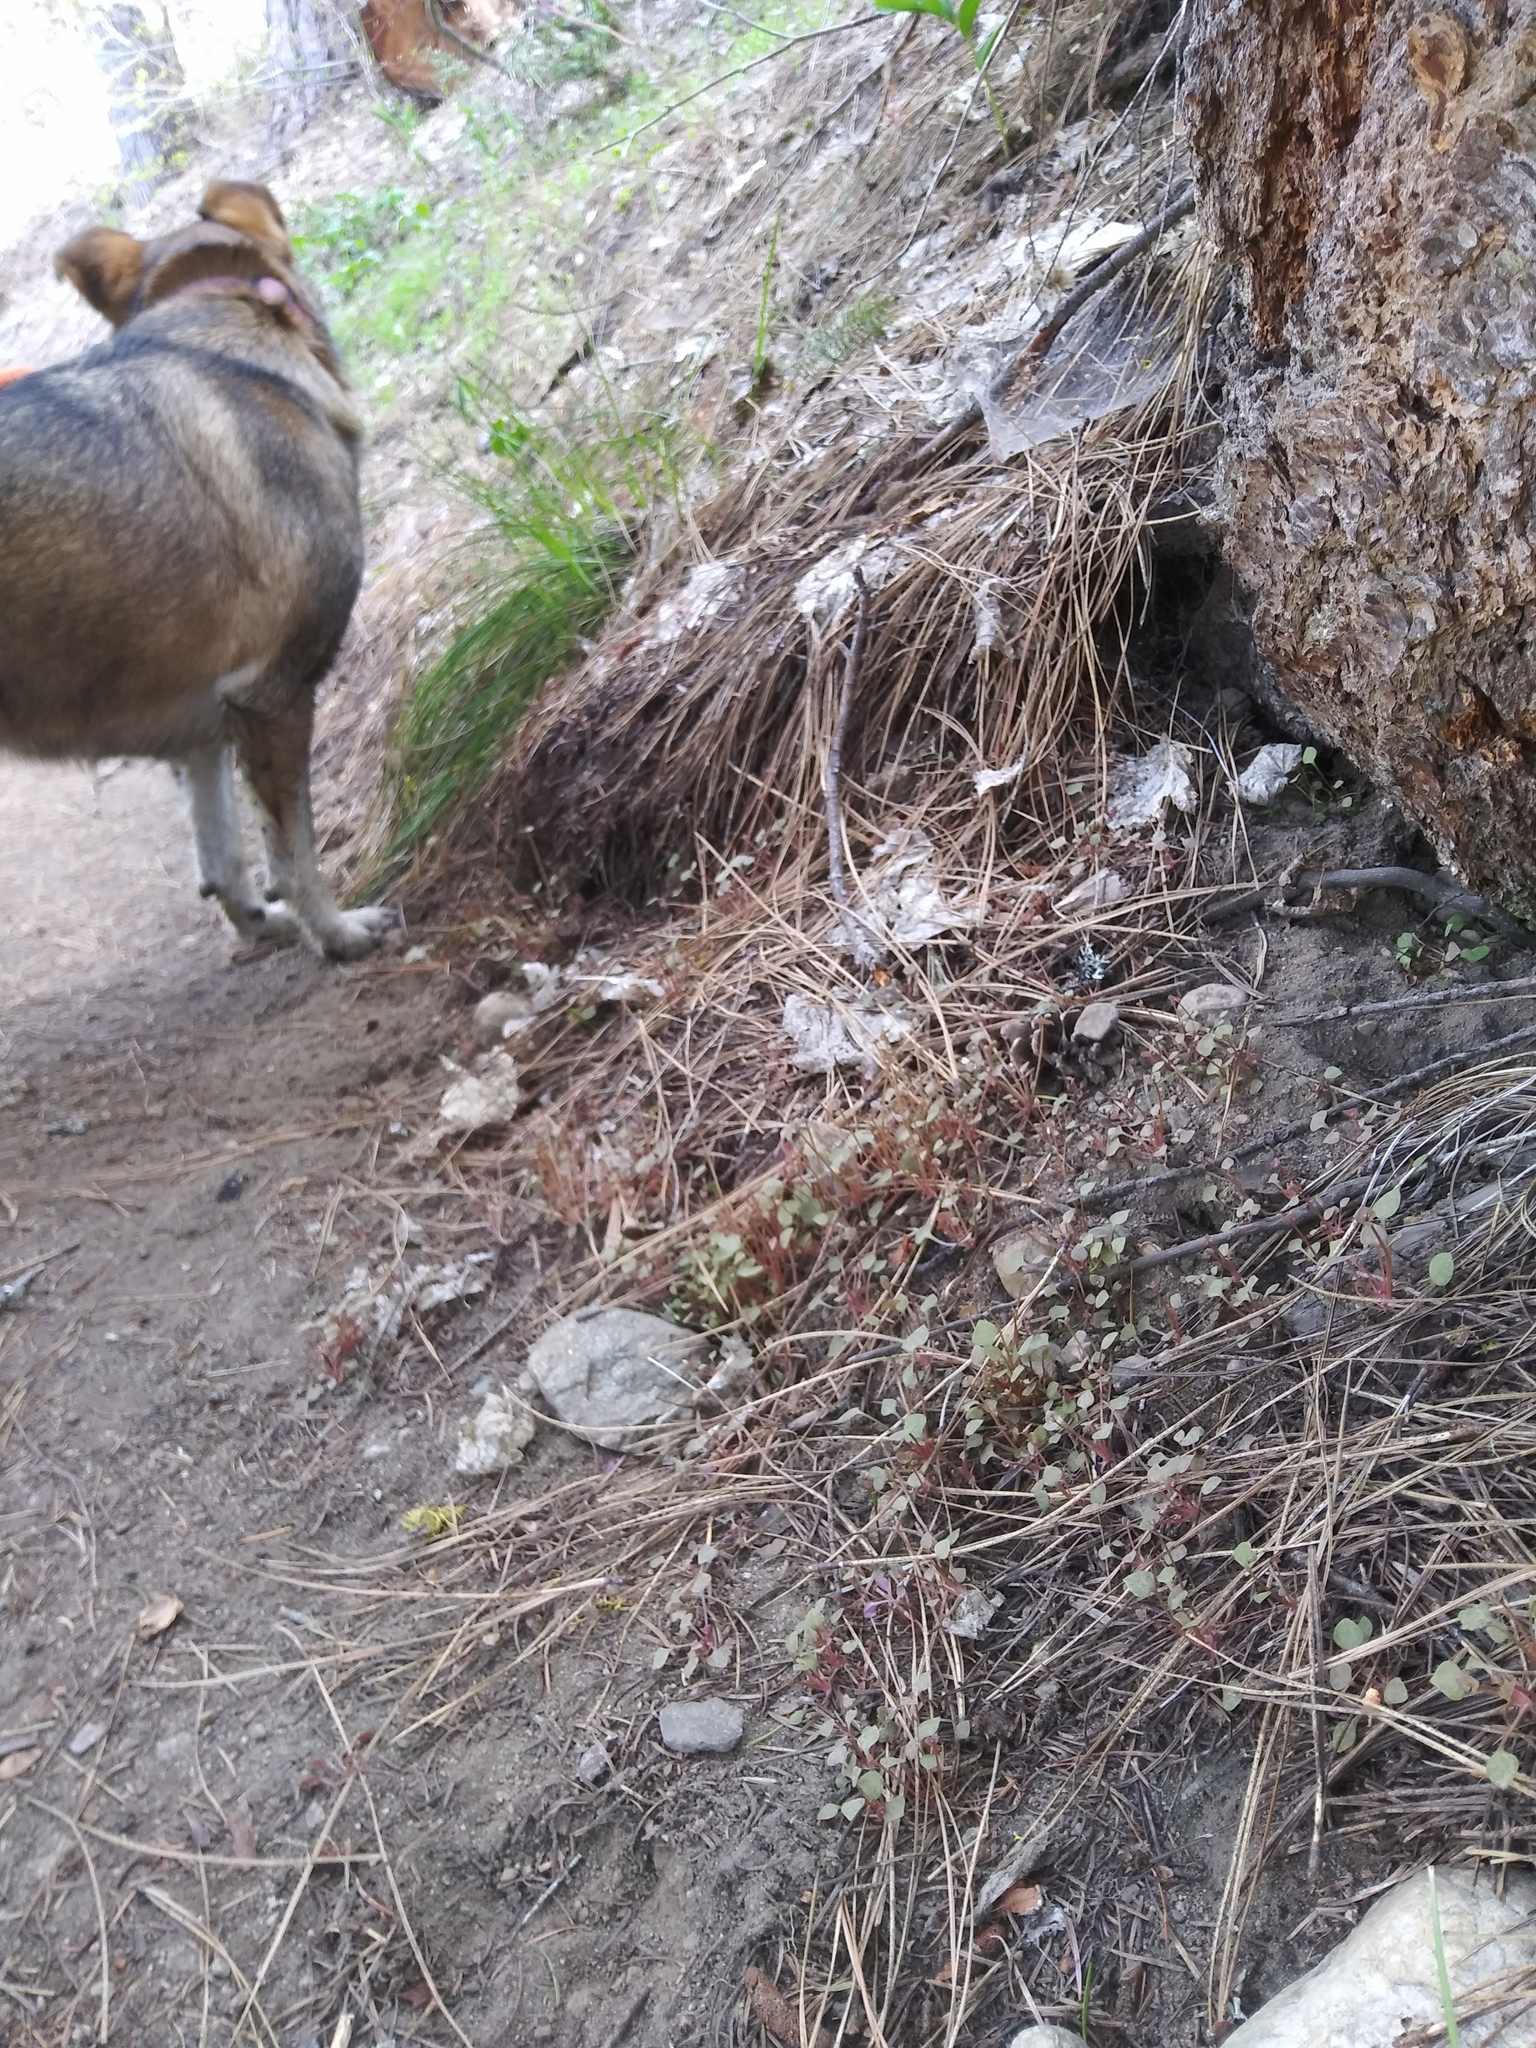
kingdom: Plantae
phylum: Tracheophyta
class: Magnoliopsida
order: Caryophyllales
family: Montiaceae
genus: Claytonia
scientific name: Claytonia rubra
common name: Erubescent miner's-lettuce
